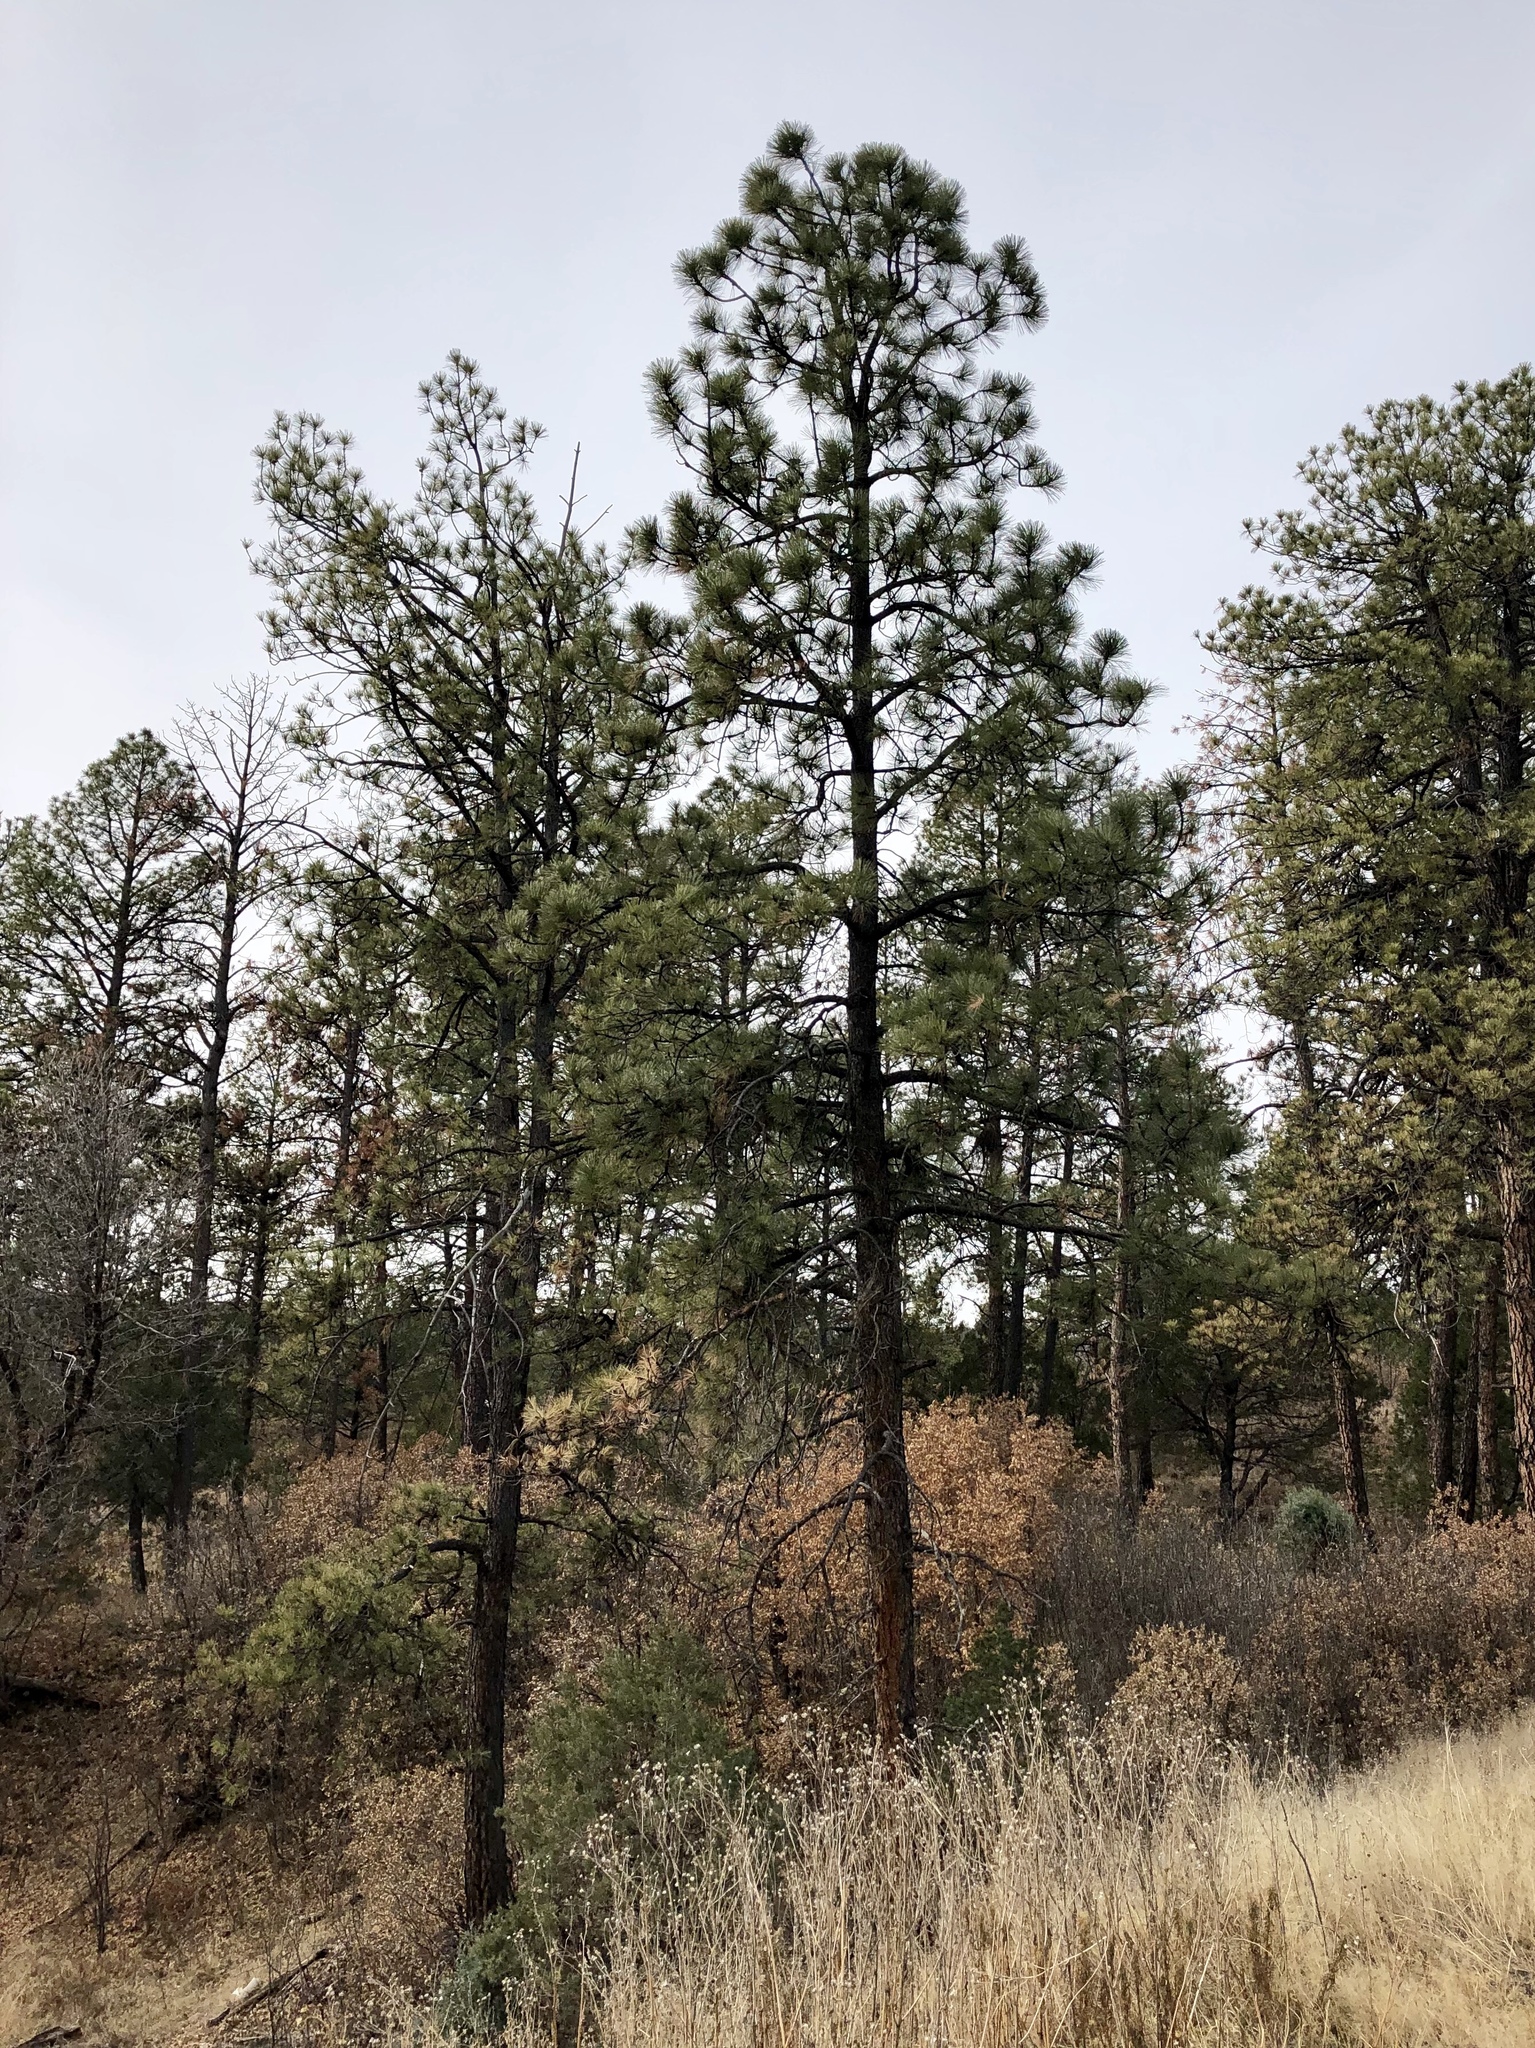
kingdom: Plantae
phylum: Tracheophyta
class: Pinopsida
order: Pinales
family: Pinaceae
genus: Pinus
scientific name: Pinus ponderosa
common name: Western yellow-pine
